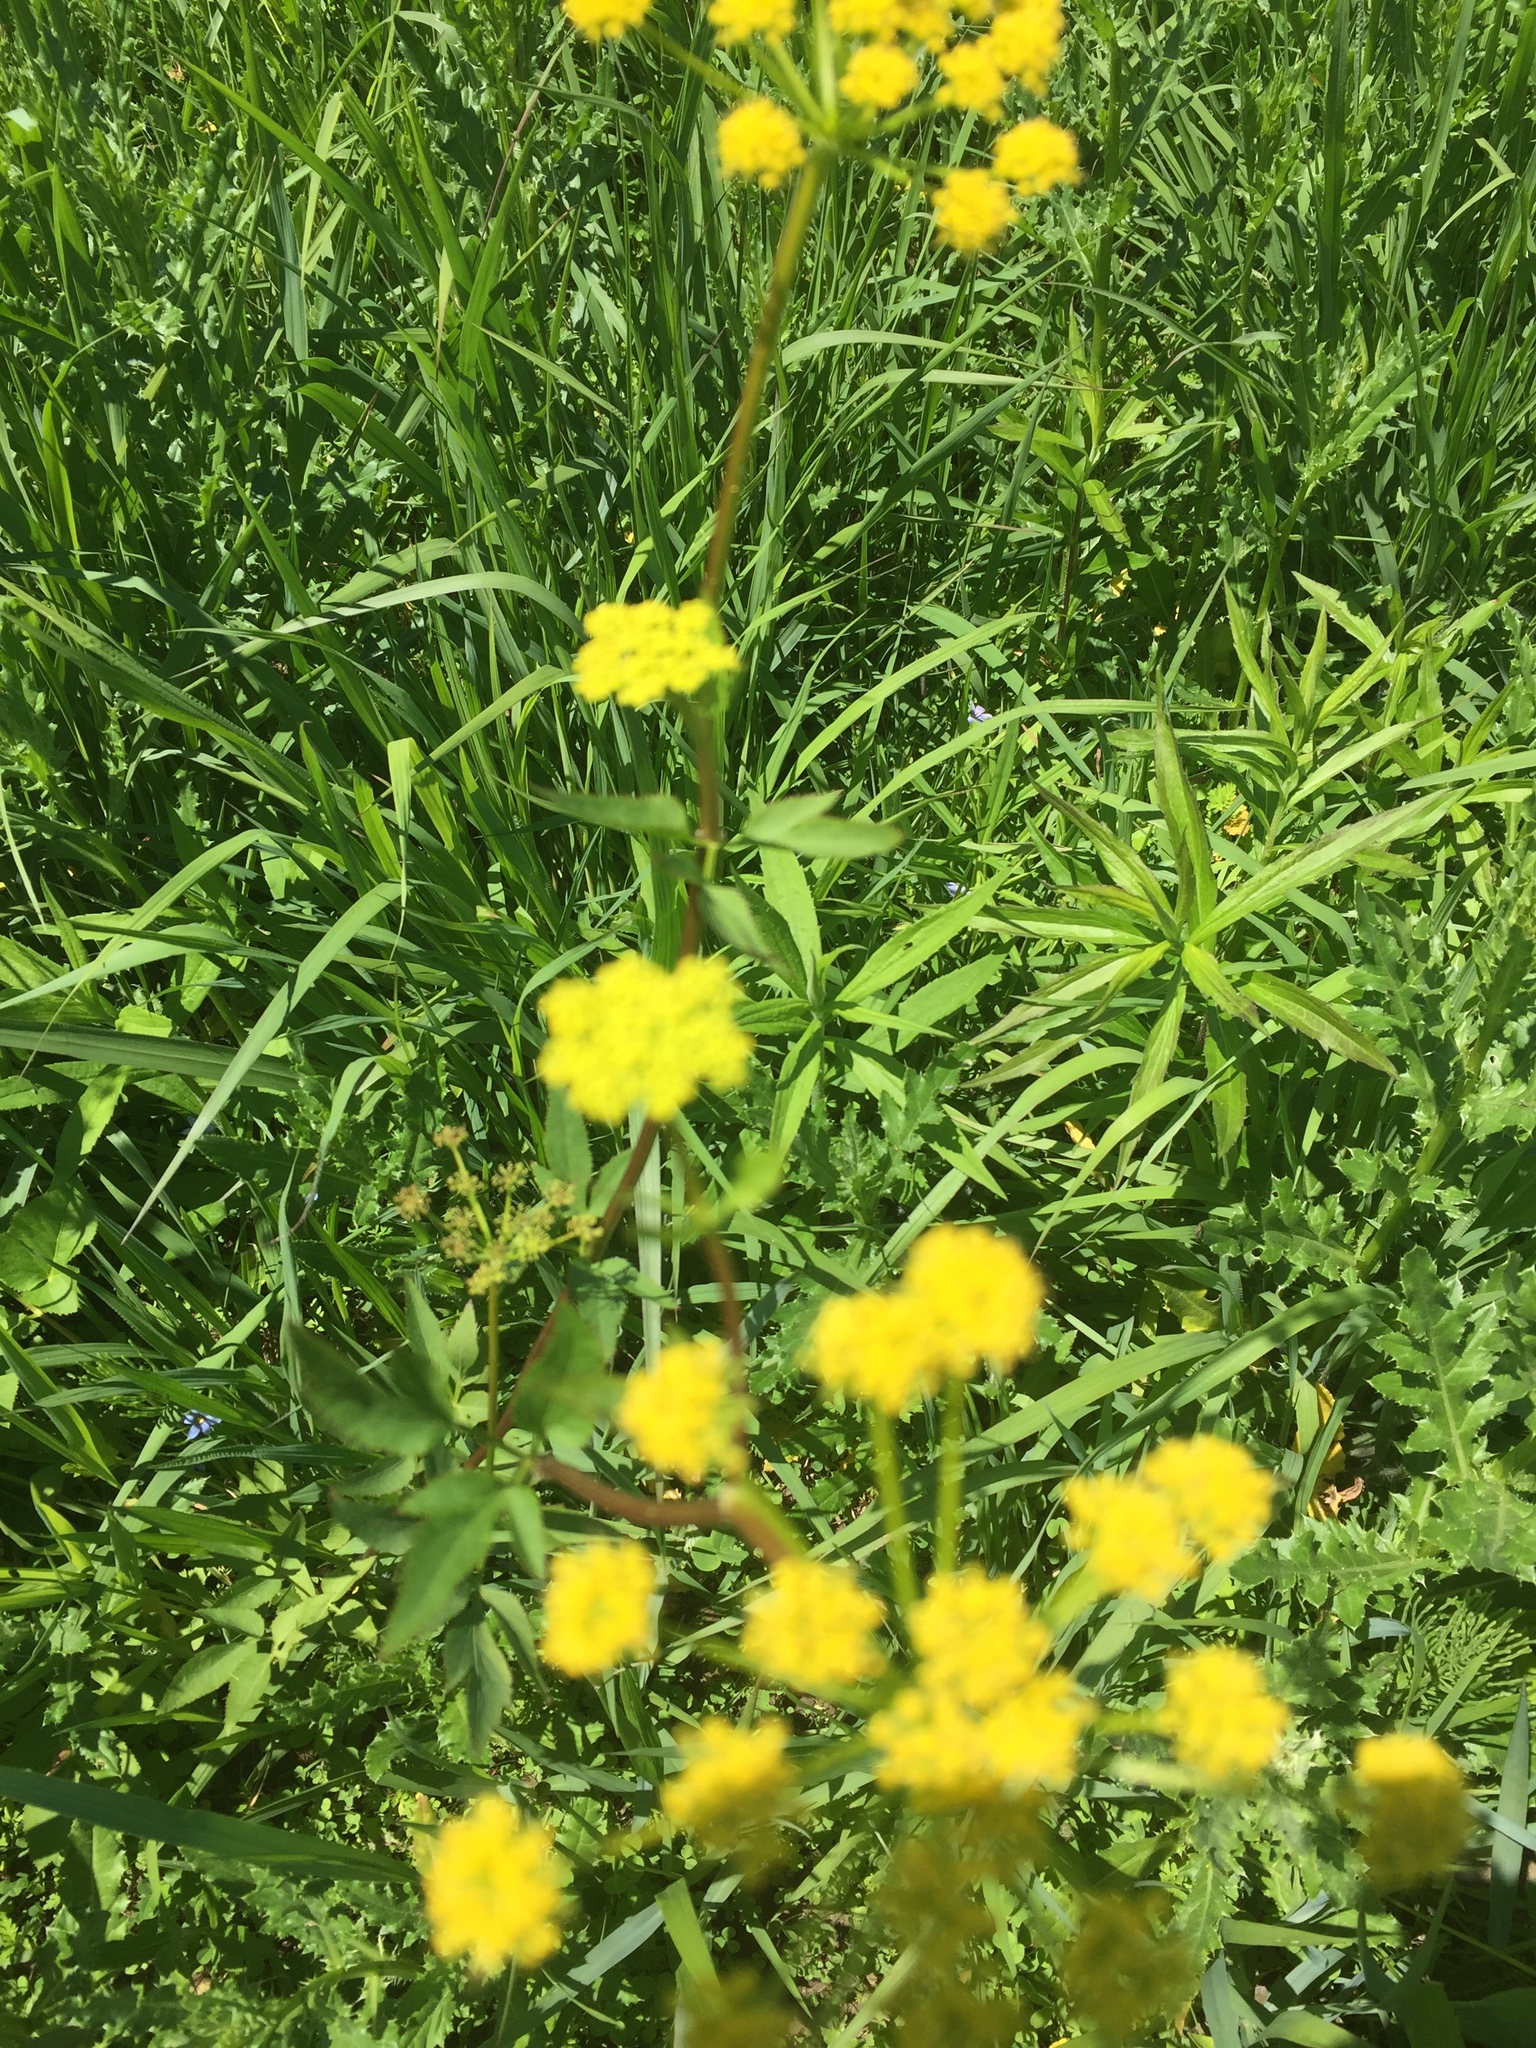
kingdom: Plantae
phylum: Tracheophyta
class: Magnoliopsida
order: Apiales
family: Apiaceae
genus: Zizia
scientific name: Zizia aurea
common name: Golden alexanders
